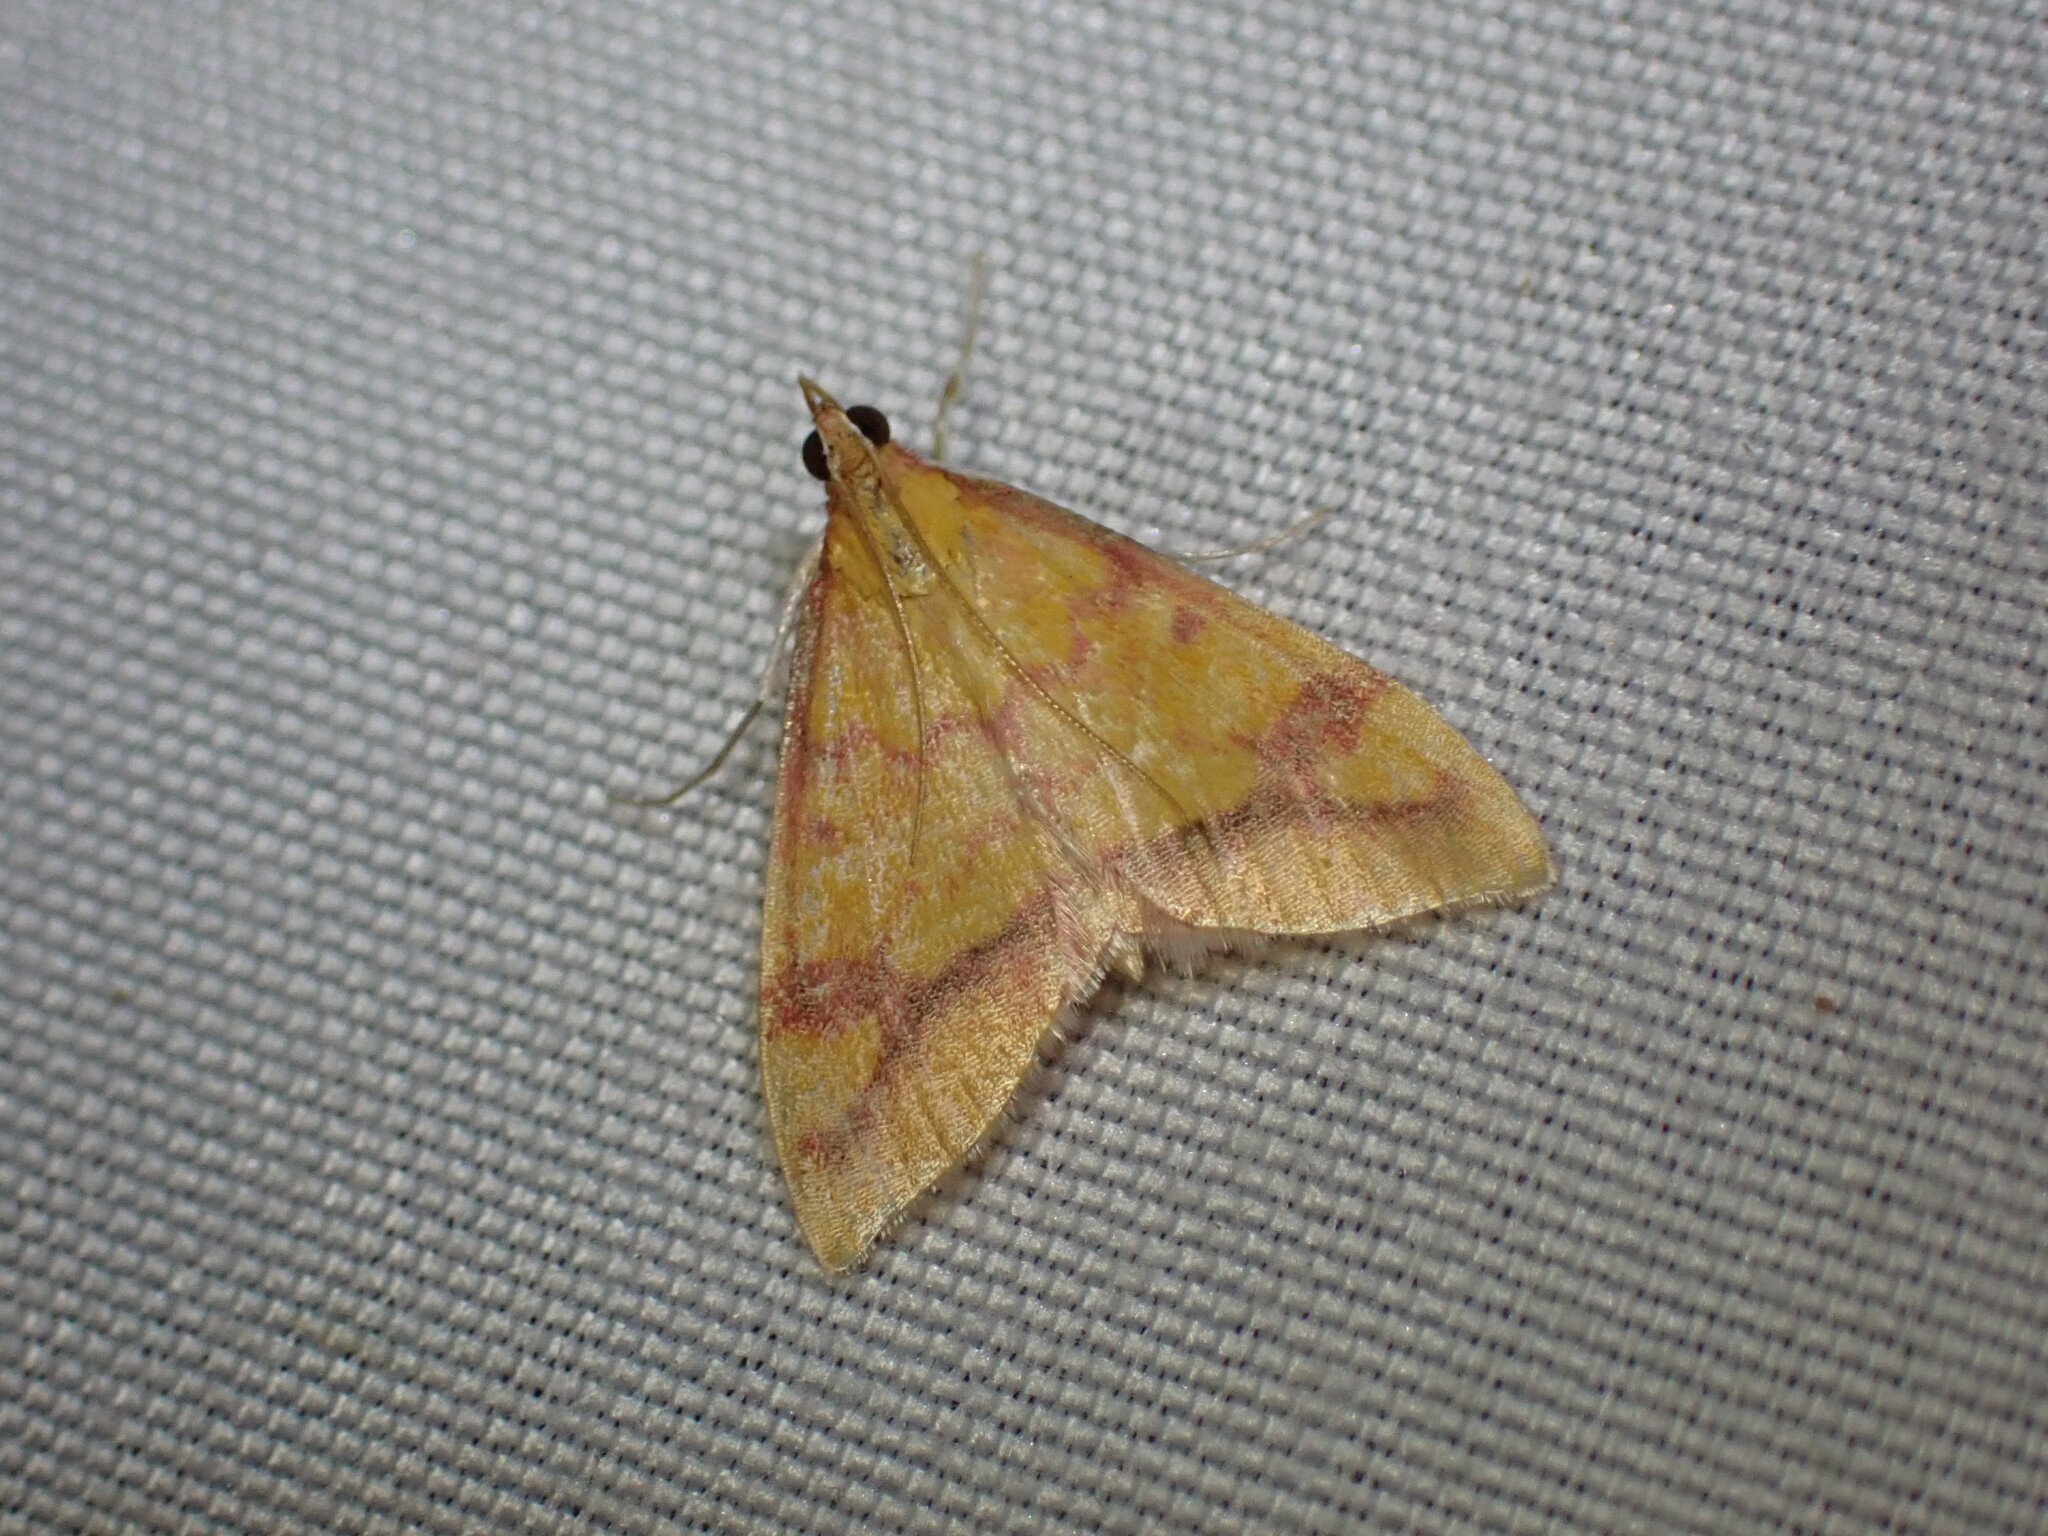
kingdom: Animalia
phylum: Arthropoda
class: Insecta
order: Lepidoptera
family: Crambidae
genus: Pyrausta
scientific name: Pyrausta perrubralis
